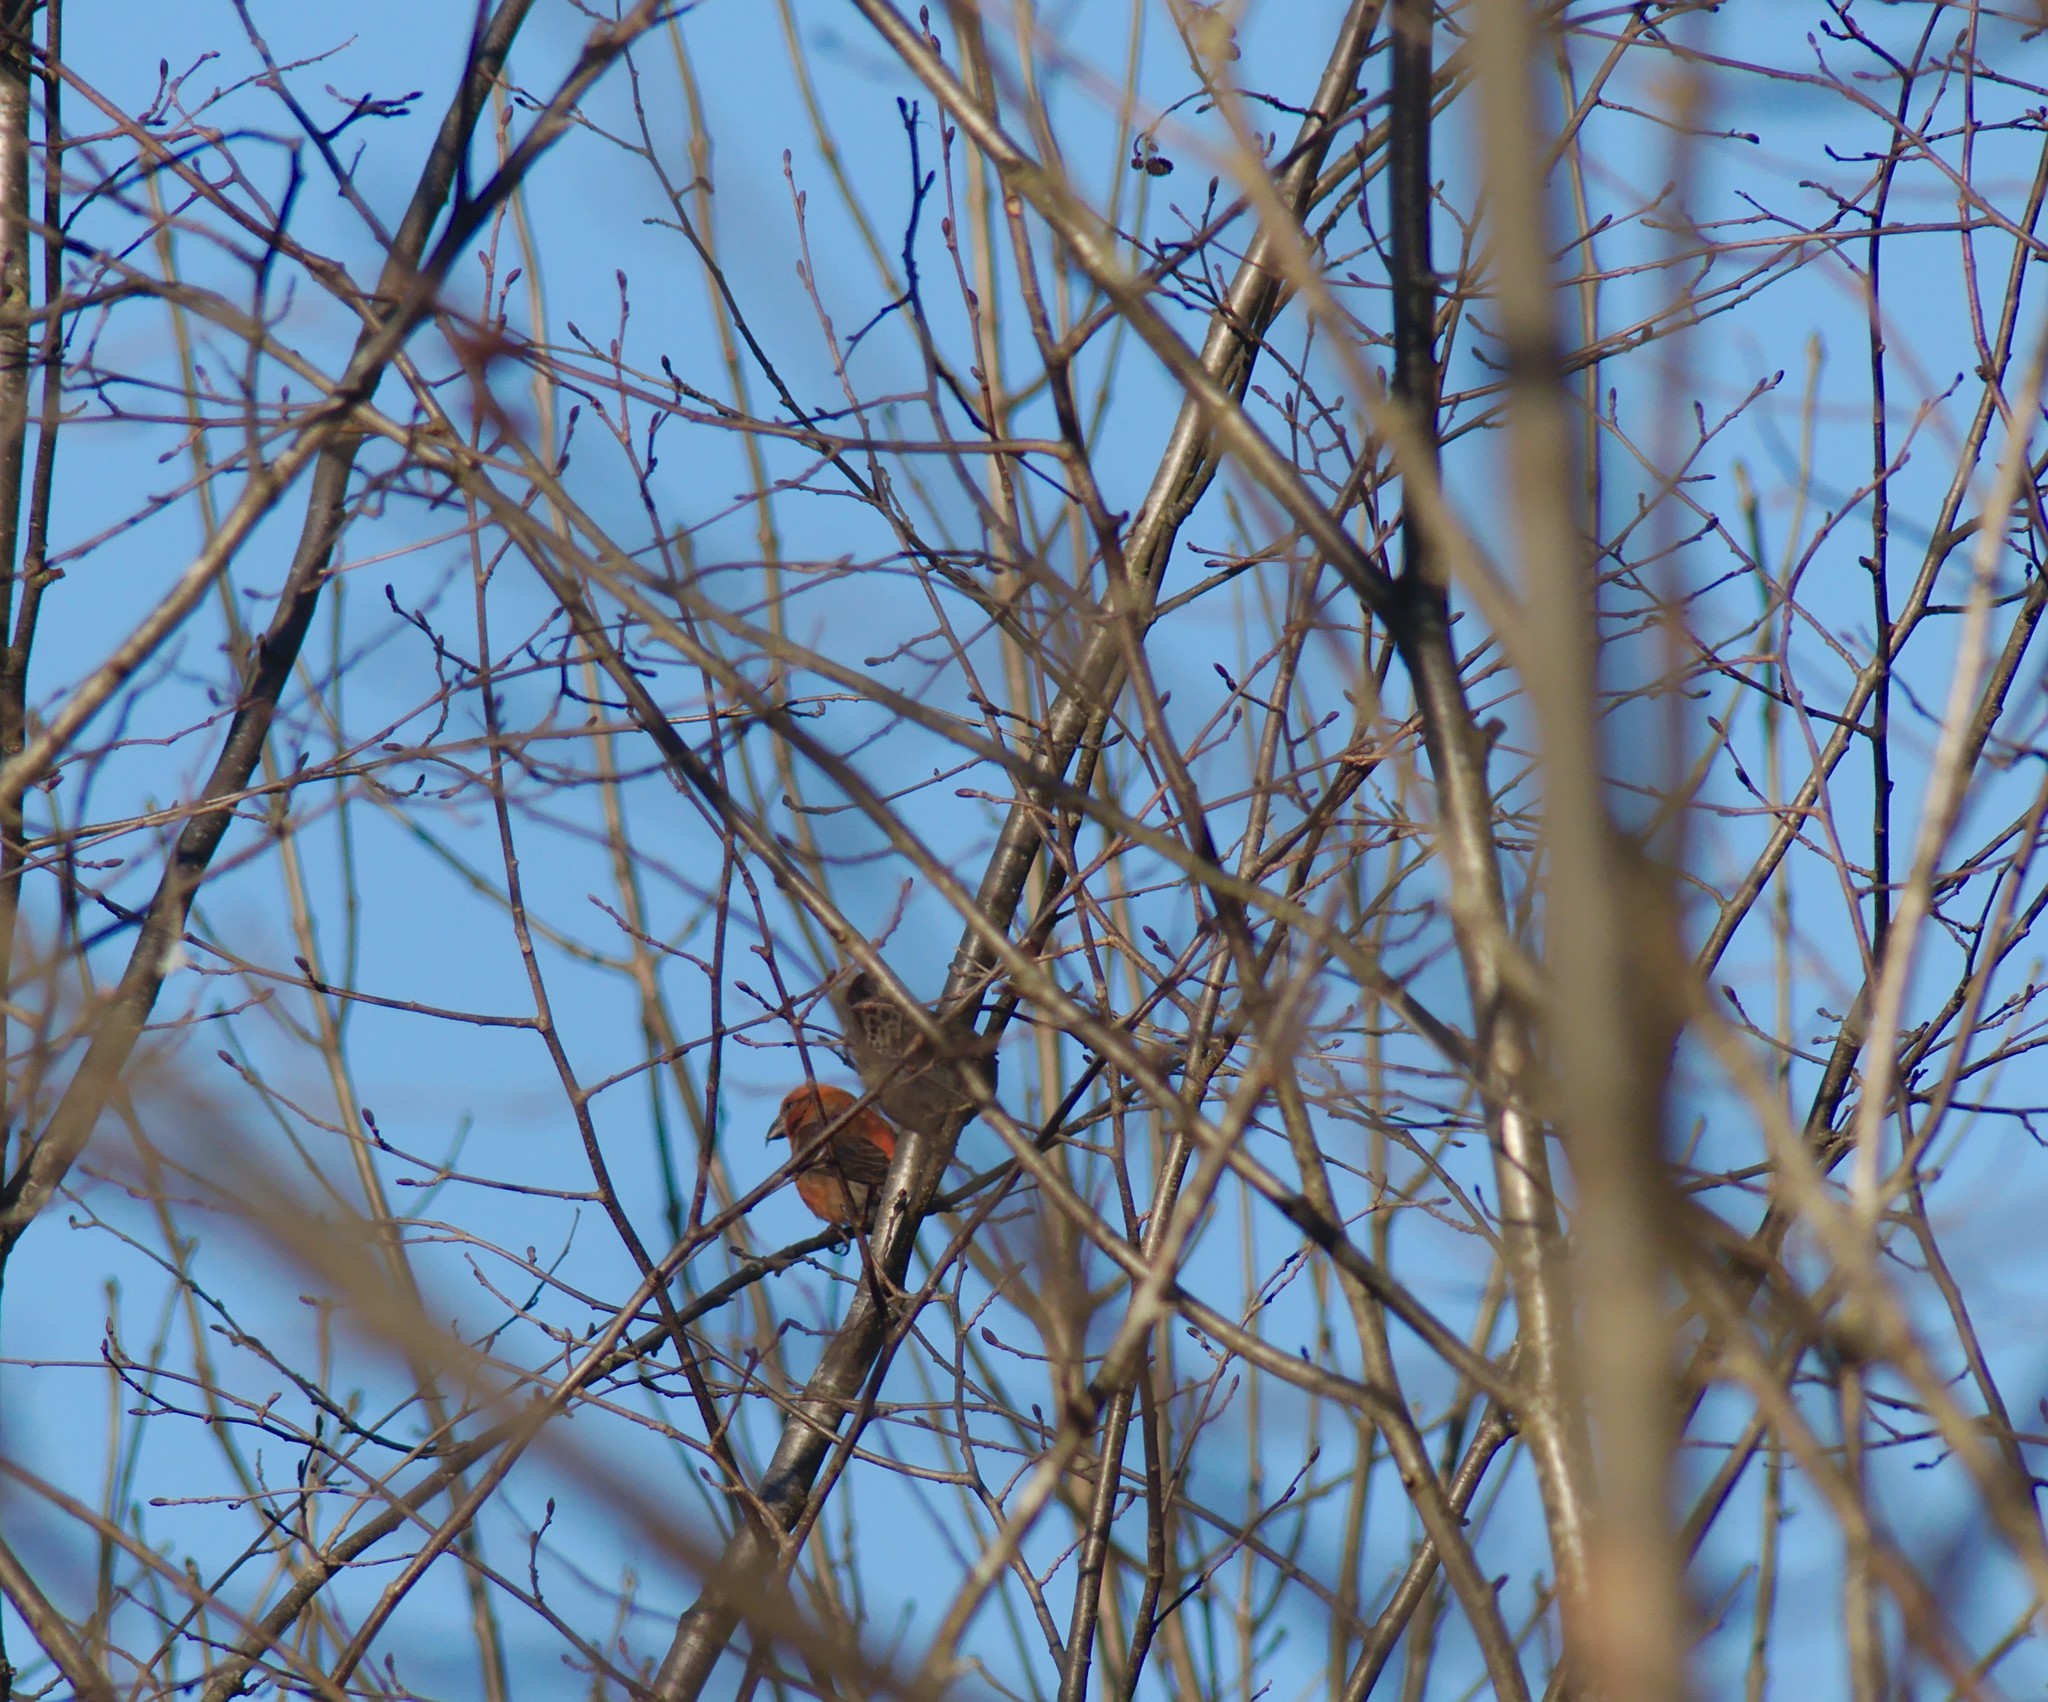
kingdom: Animalia
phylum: Chordata
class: Aves
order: Passeriformes
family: Fringillidae
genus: Loxia
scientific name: Loxia
